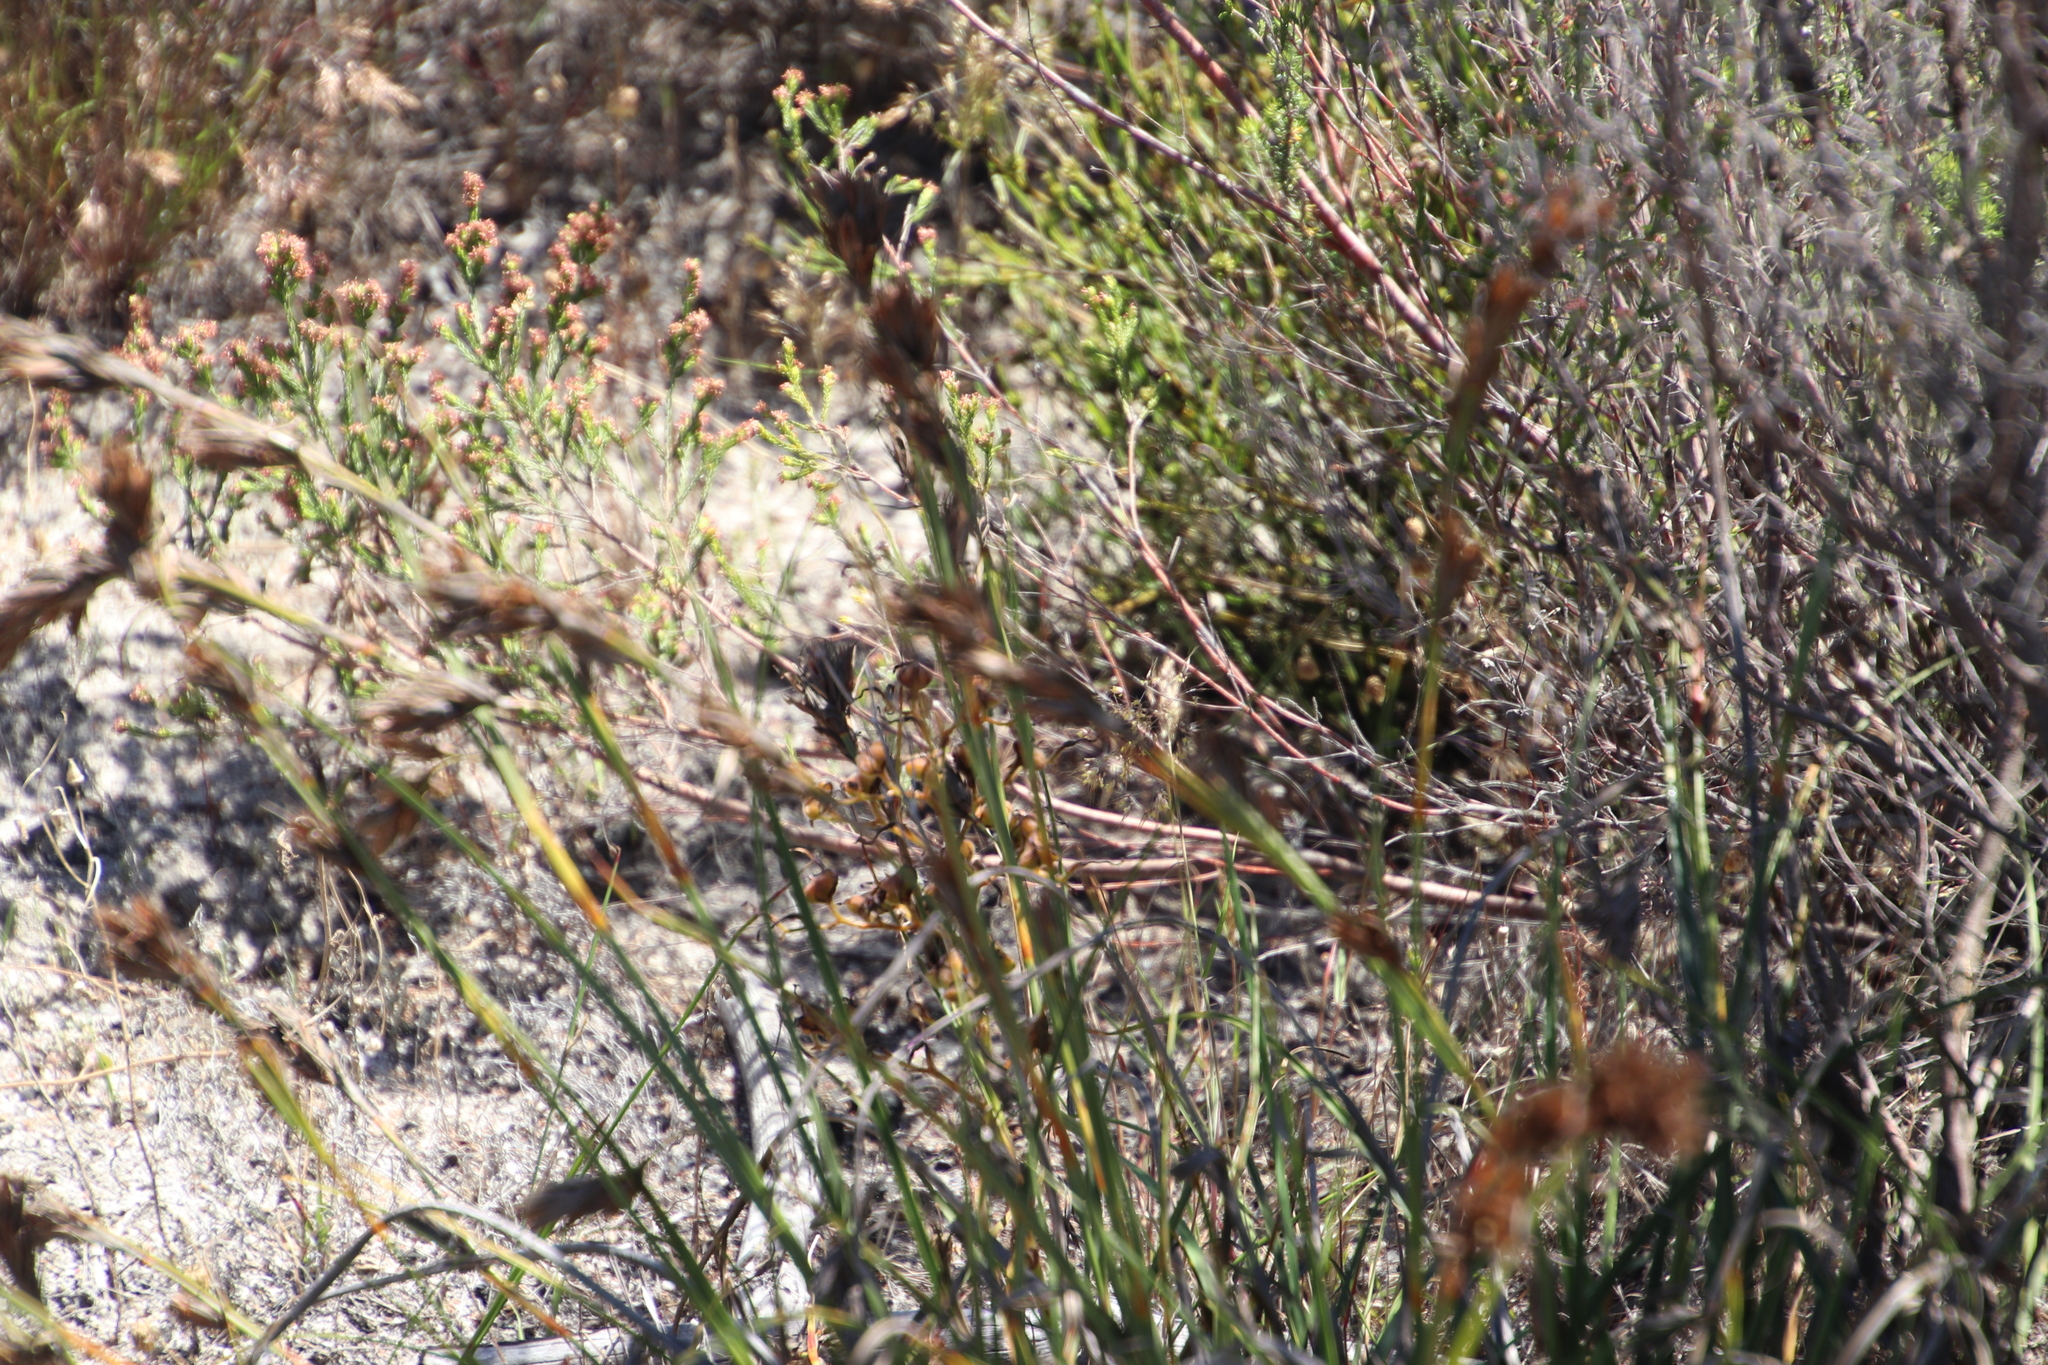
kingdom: Plantae
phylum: Tracheophyta
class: Liliopsida
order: Poales
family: Cyperaceae
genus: Tetraria
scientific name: Tetraria eximia
